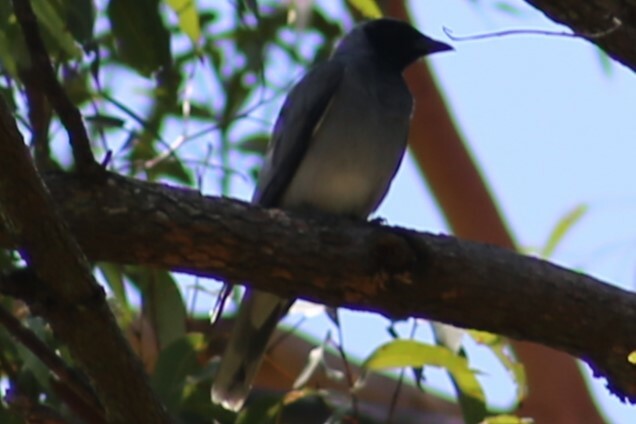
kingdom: Animalia
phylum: Chordata
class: Aves
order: Passeriformes
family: Campephagidae
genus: Coracina
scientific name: Coracina novaehollandiae
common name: Black-faced cuckooshrike
